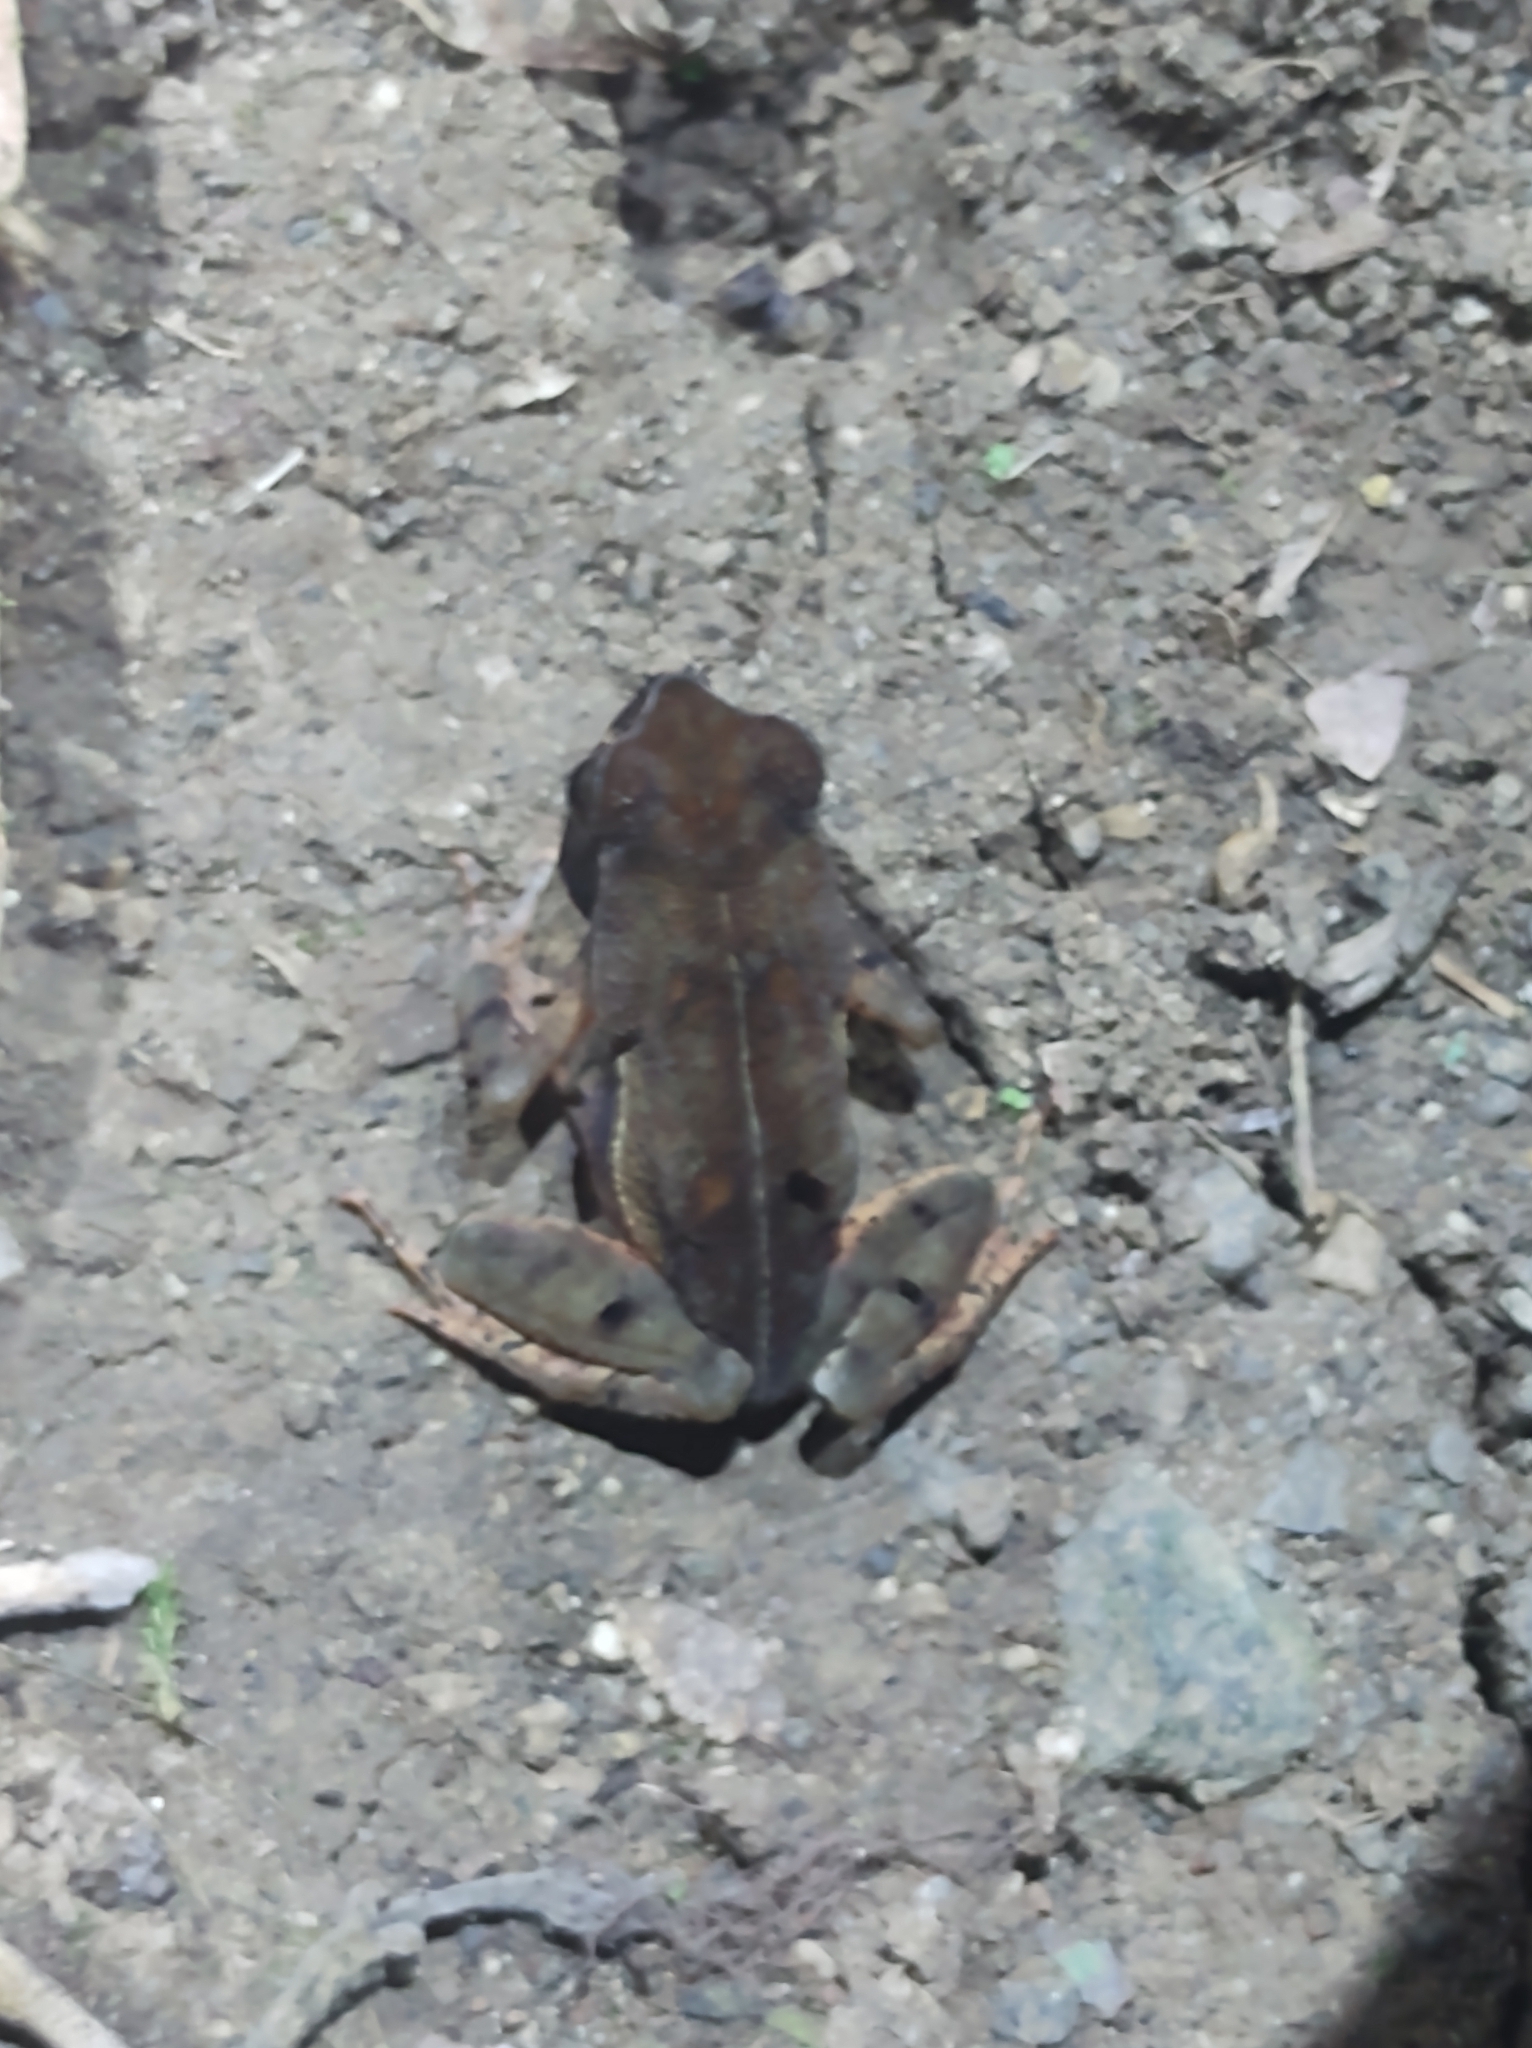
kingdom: Animalia
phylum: Chordata
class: Amphibia
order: Anura
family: Bufonidae
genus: Rhaebo
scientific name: Rhaebo haematiticus
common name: Truando toad
